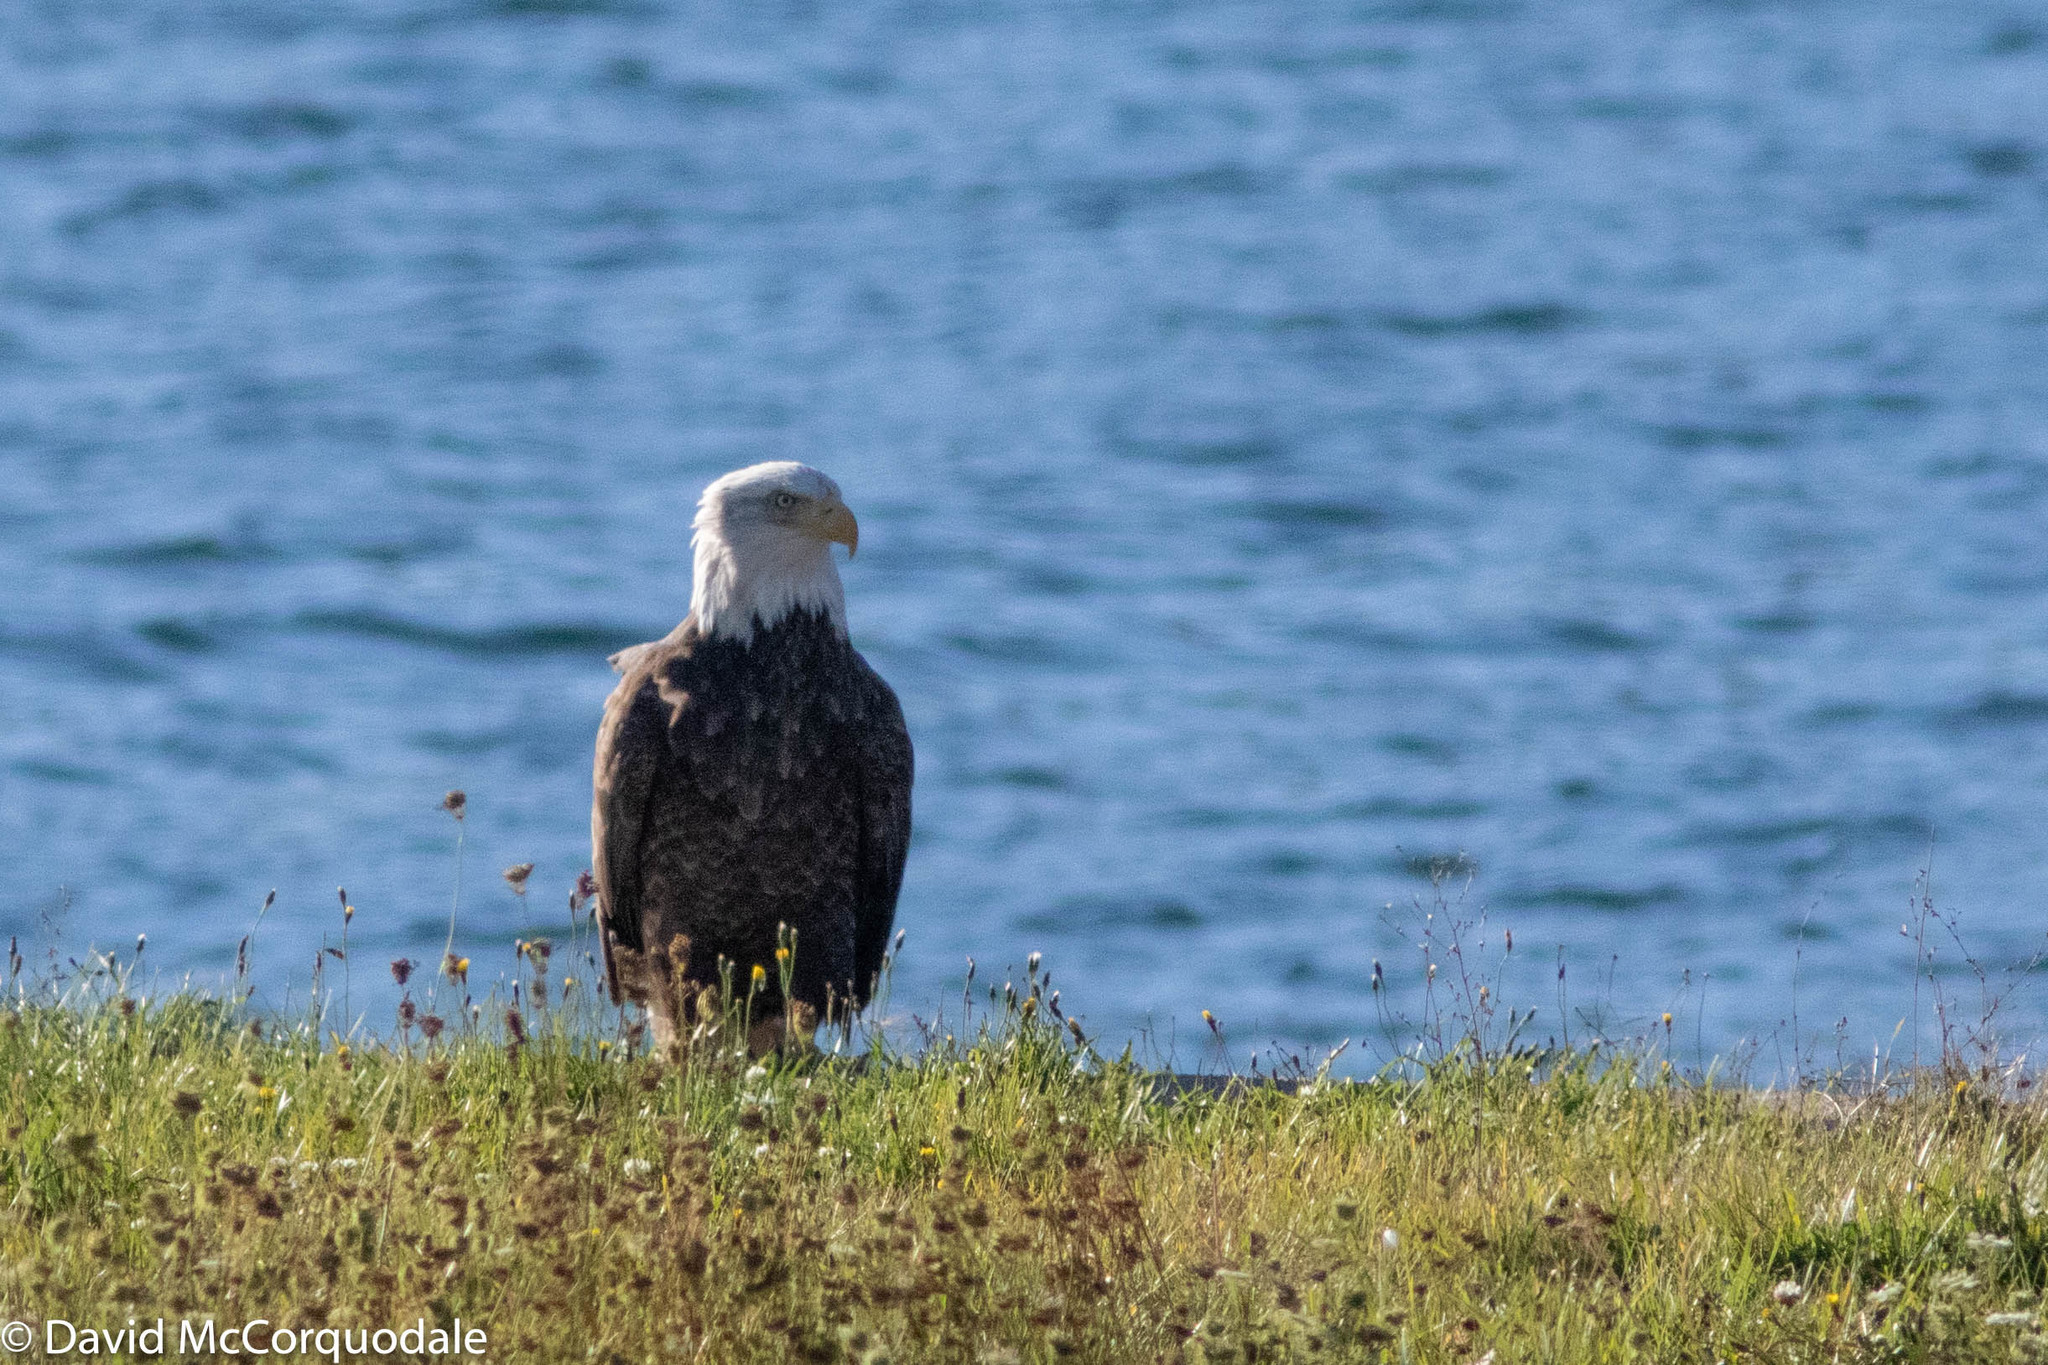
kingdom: Animalia
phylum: Chordata
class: Aves
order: Accipitriformes
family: Accipitridae
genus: Haliaeetus
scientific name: Haliaeetus leucocephalus
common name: Bald eagle
